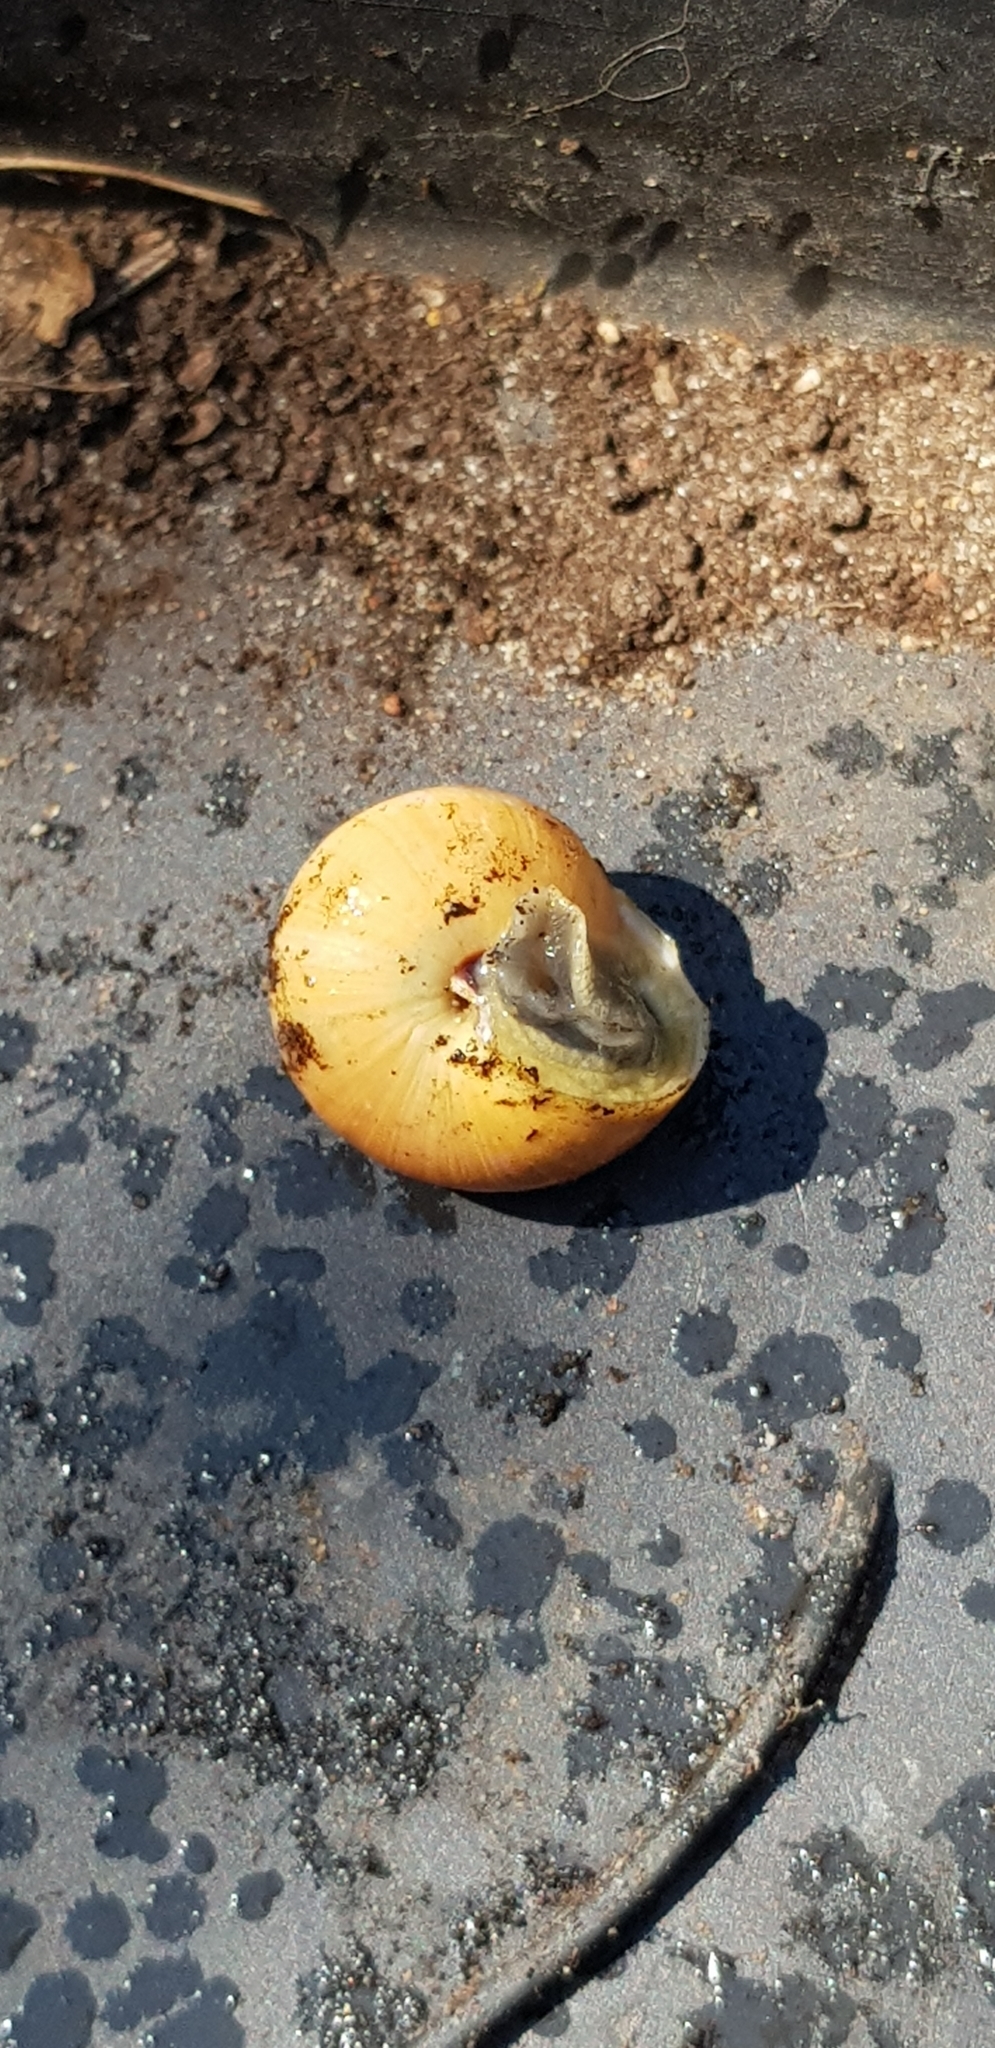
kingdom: Animalia
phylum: Mollusca
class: Gastropoda
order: Stylommatophora
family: Helicidae
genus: Cepaea
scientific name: Cepaea
